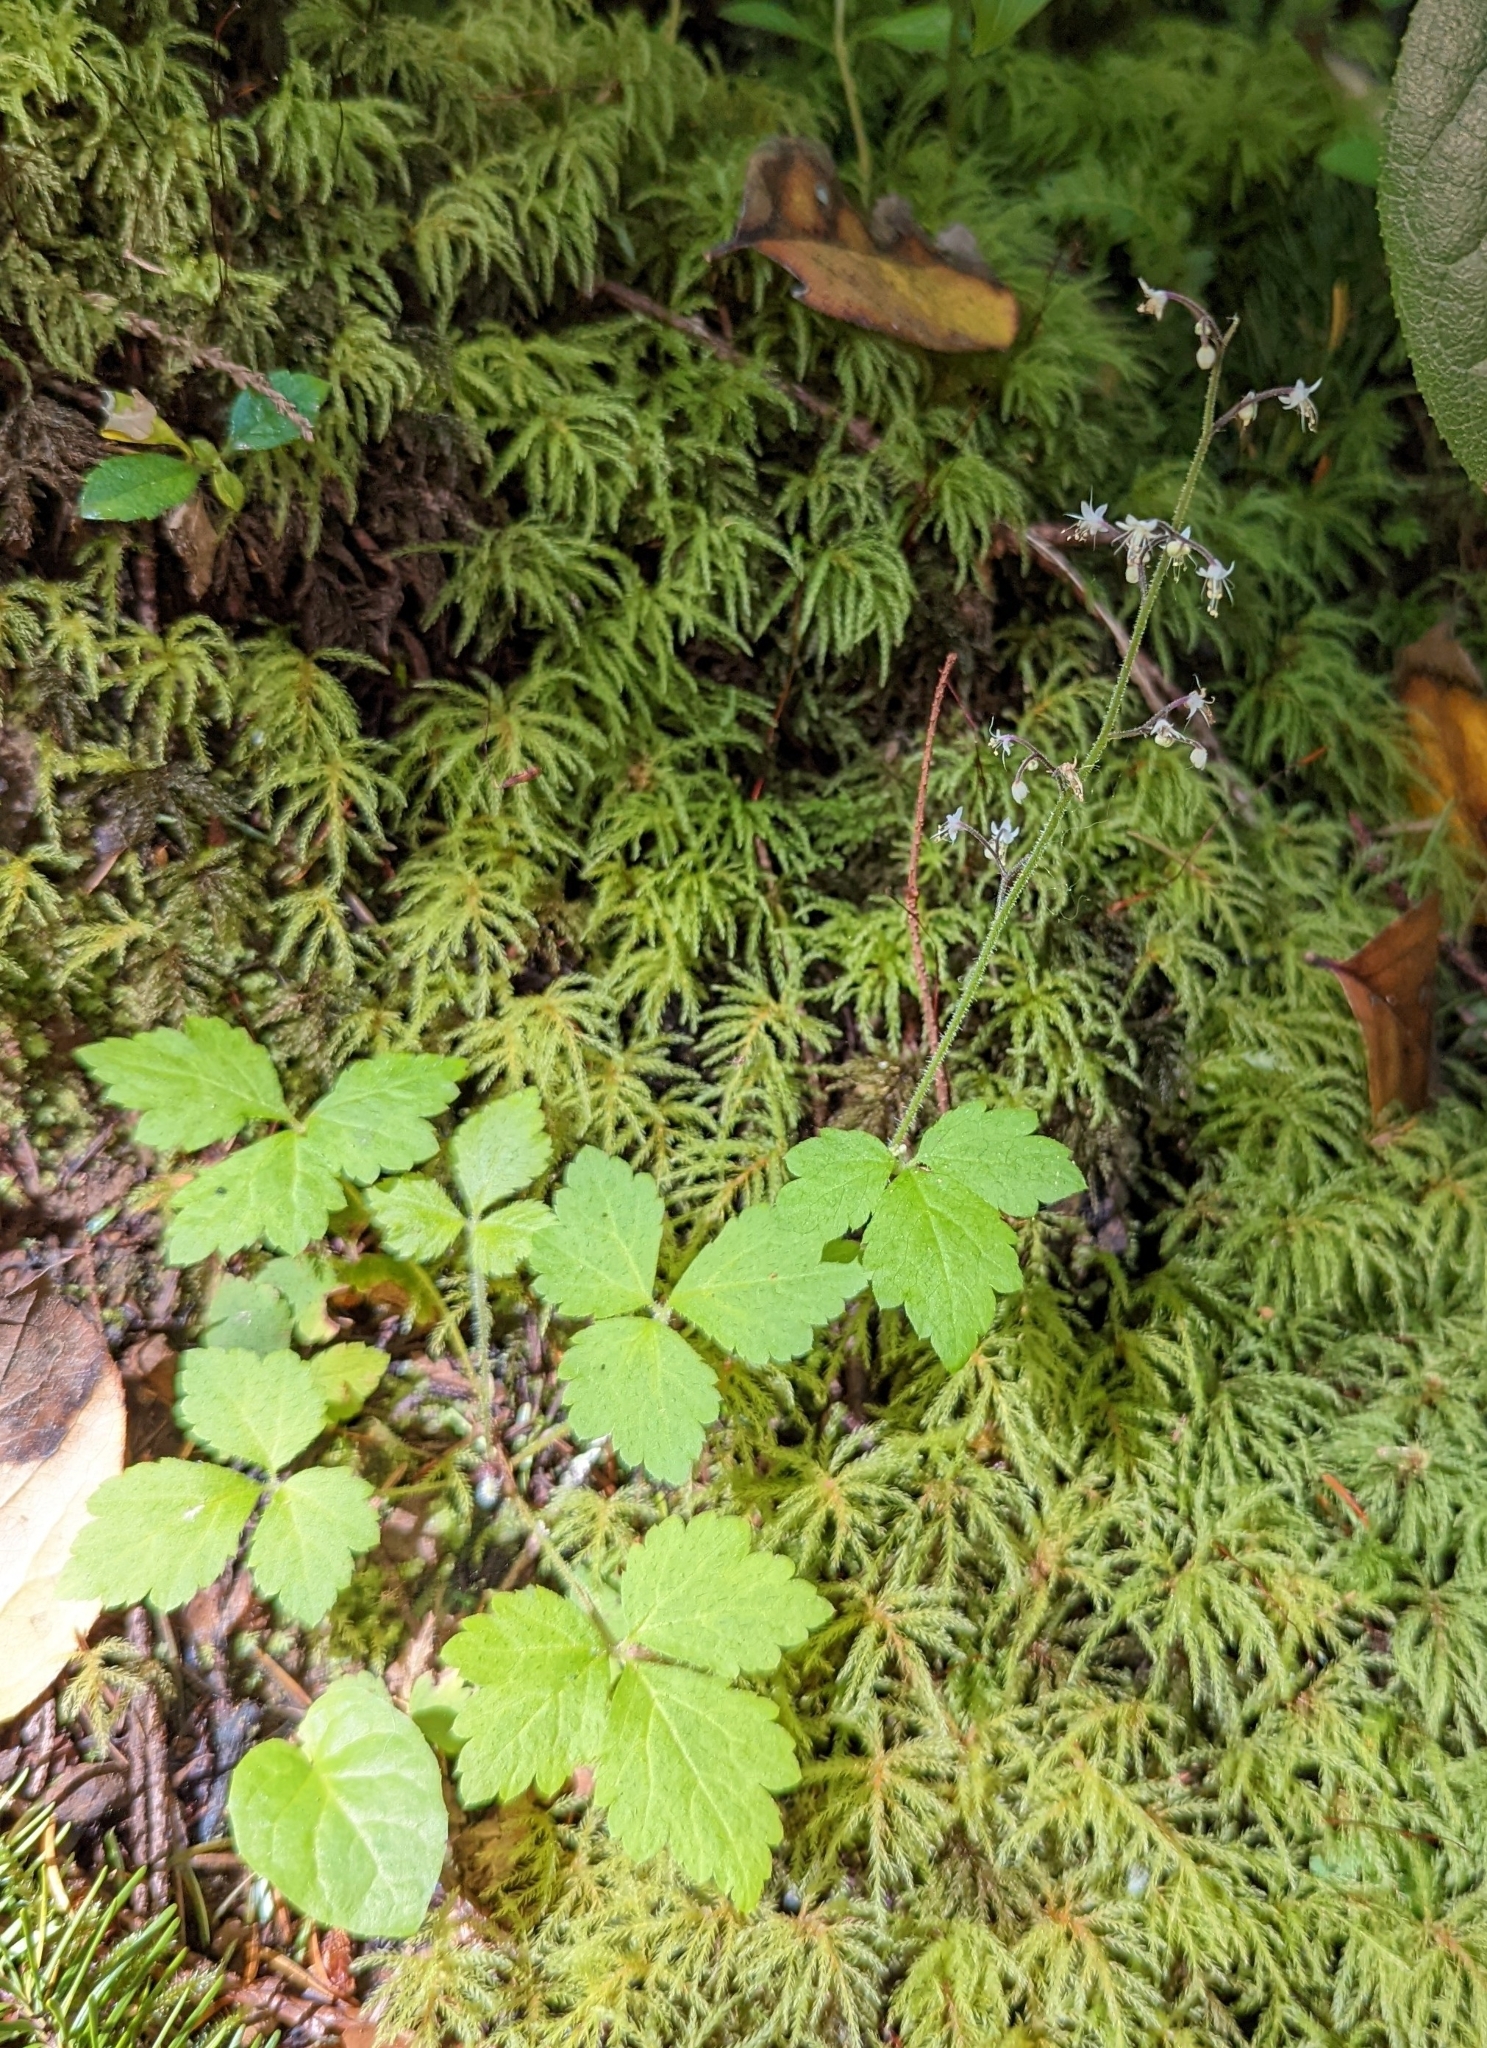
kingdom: Plantae
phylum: Tracheophyta
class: Magnoliopsida
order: Saxifragales
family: Saxifragaceae
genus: Tiarella
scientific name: Tiarella trifoliata
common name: Sugar-scoop
